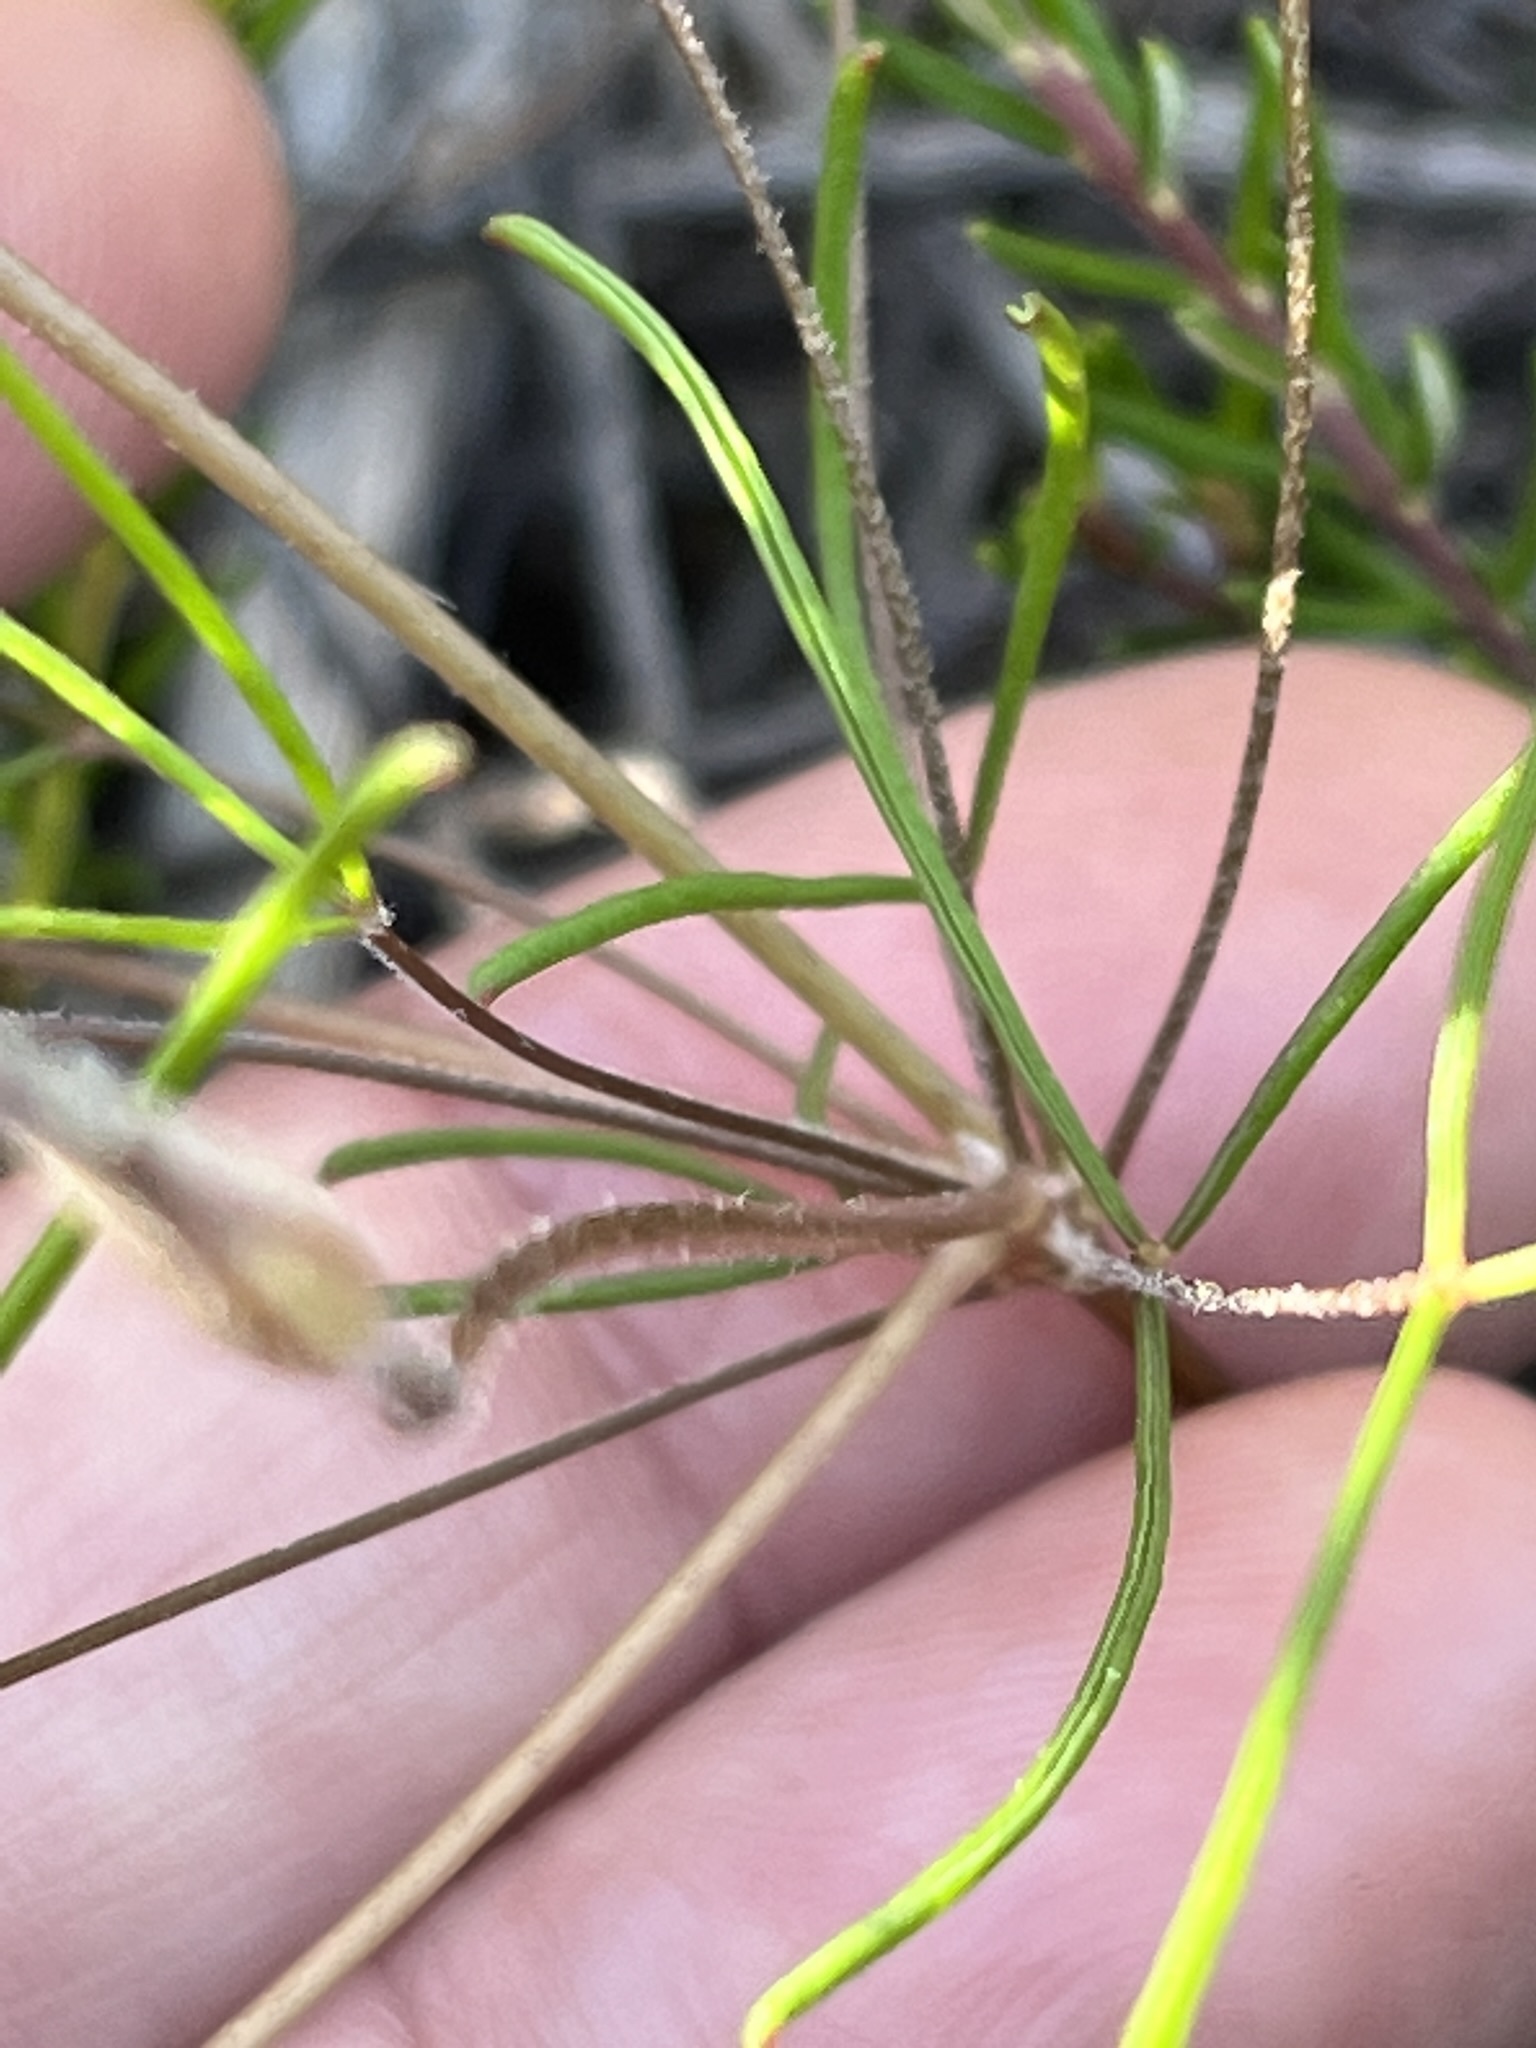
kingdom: Plantae
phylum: Tracheophyta
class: Magnoliopsida
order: Oxalidales
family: Oxalidaceae
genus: Oxalis
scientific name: Oxalis polyphylla
